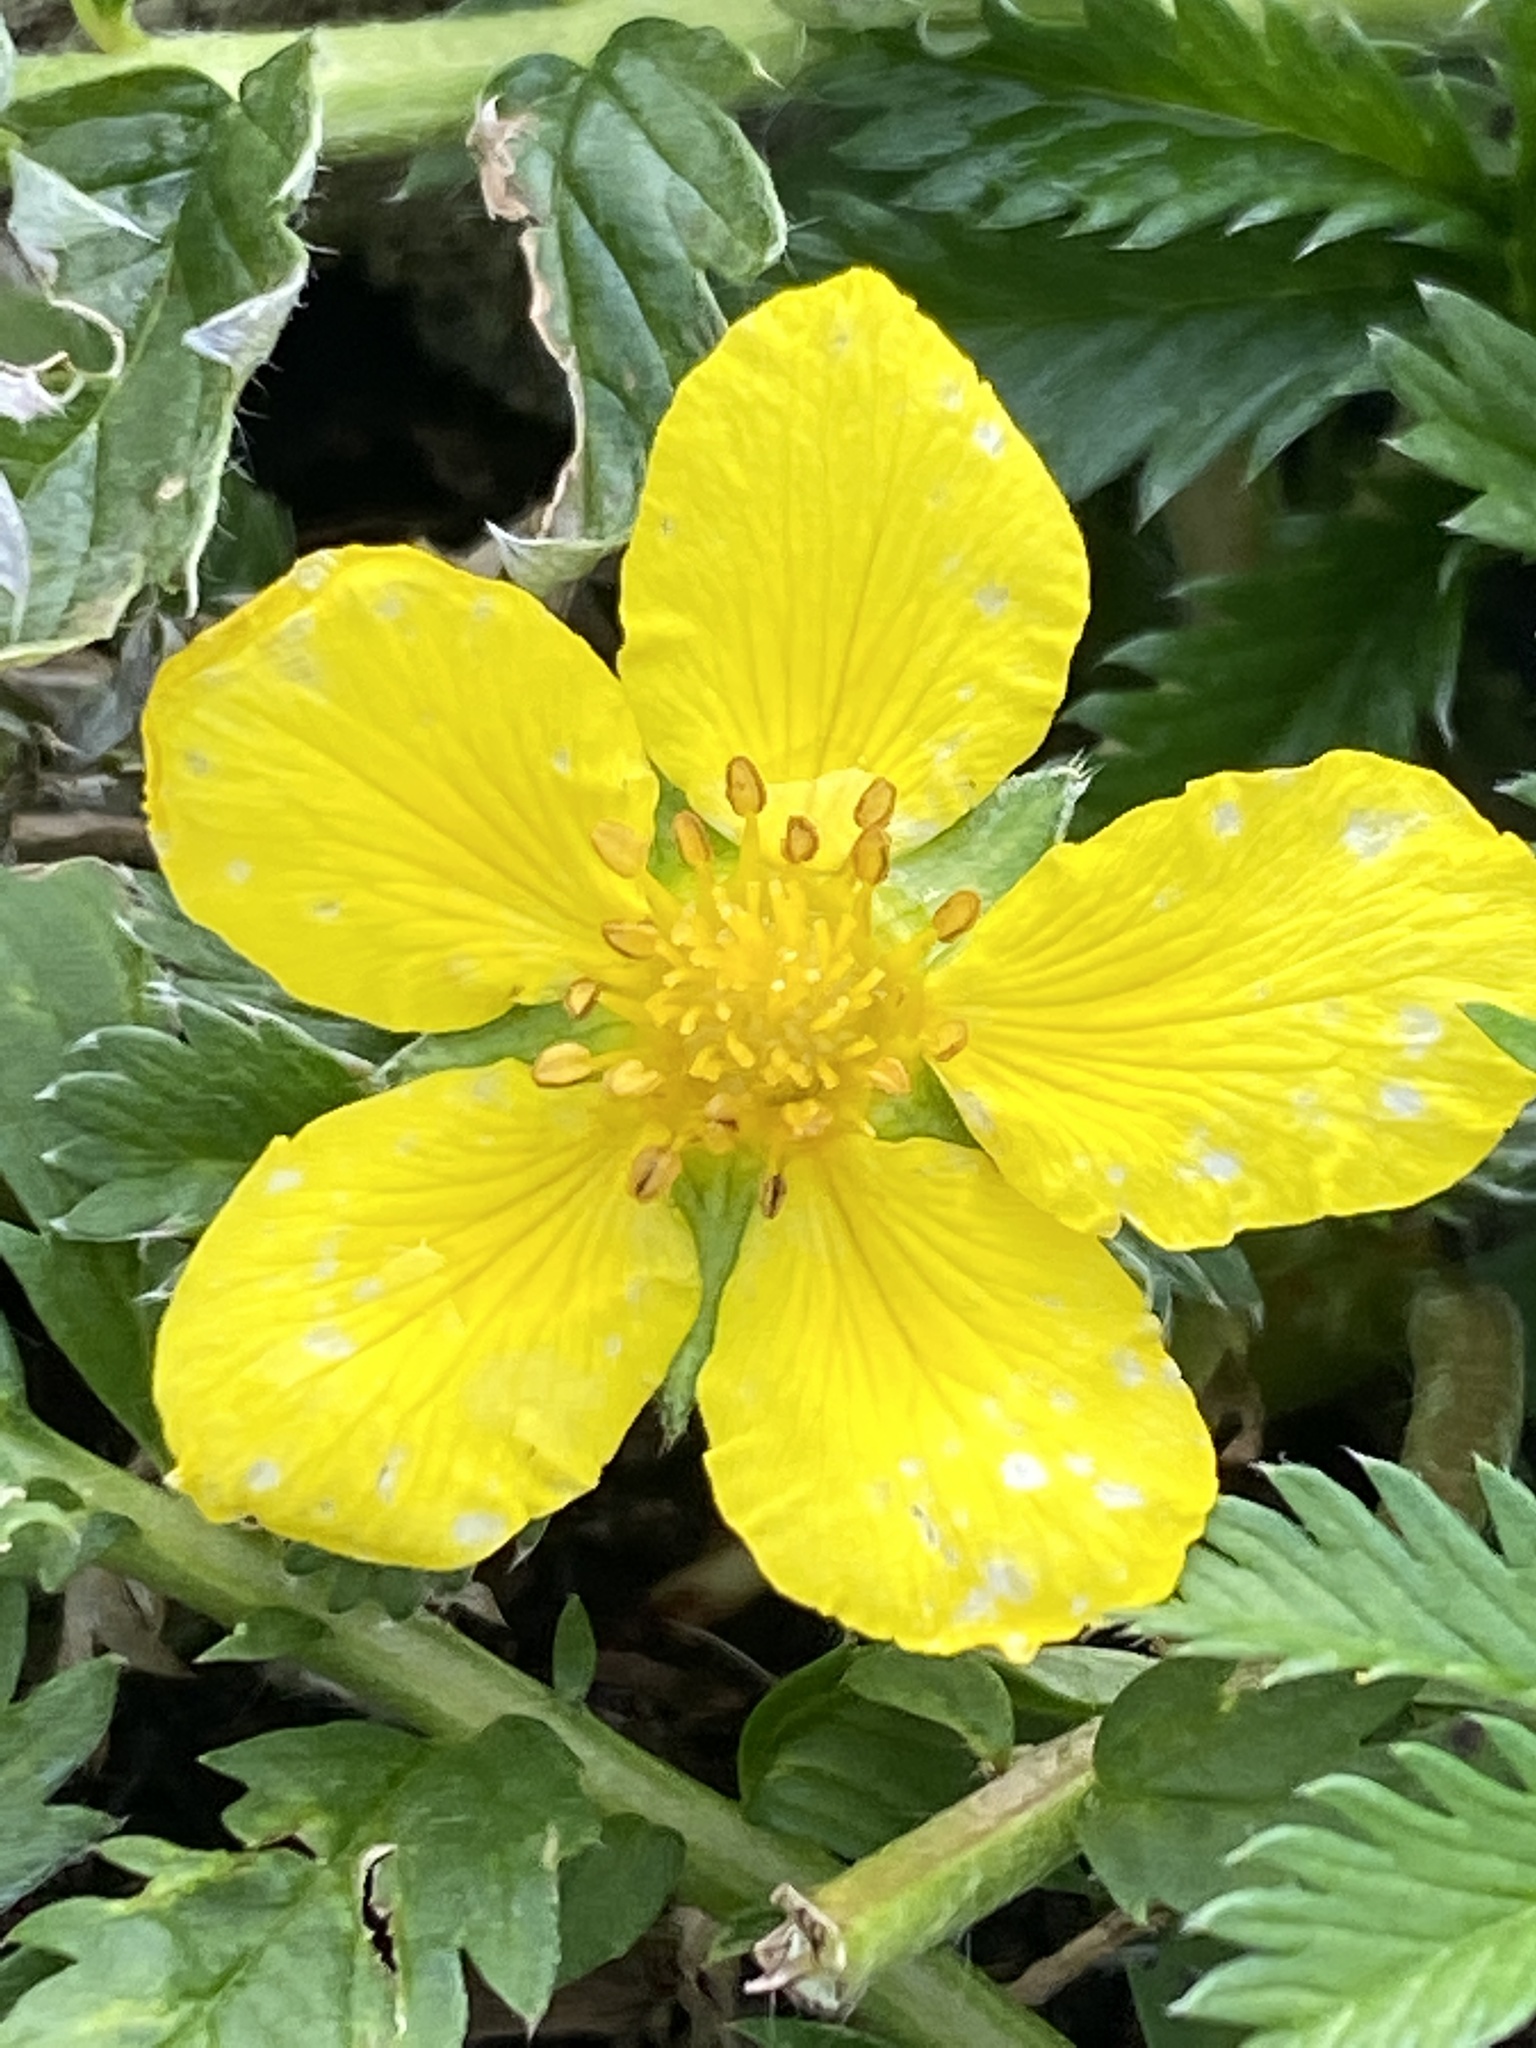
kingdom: Plantae
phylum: Tracheophyta
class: Magnoliopsida
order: Rosales
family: Rosaceae
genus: Argentina
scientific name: Argentina anserina
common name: Common silverweed
